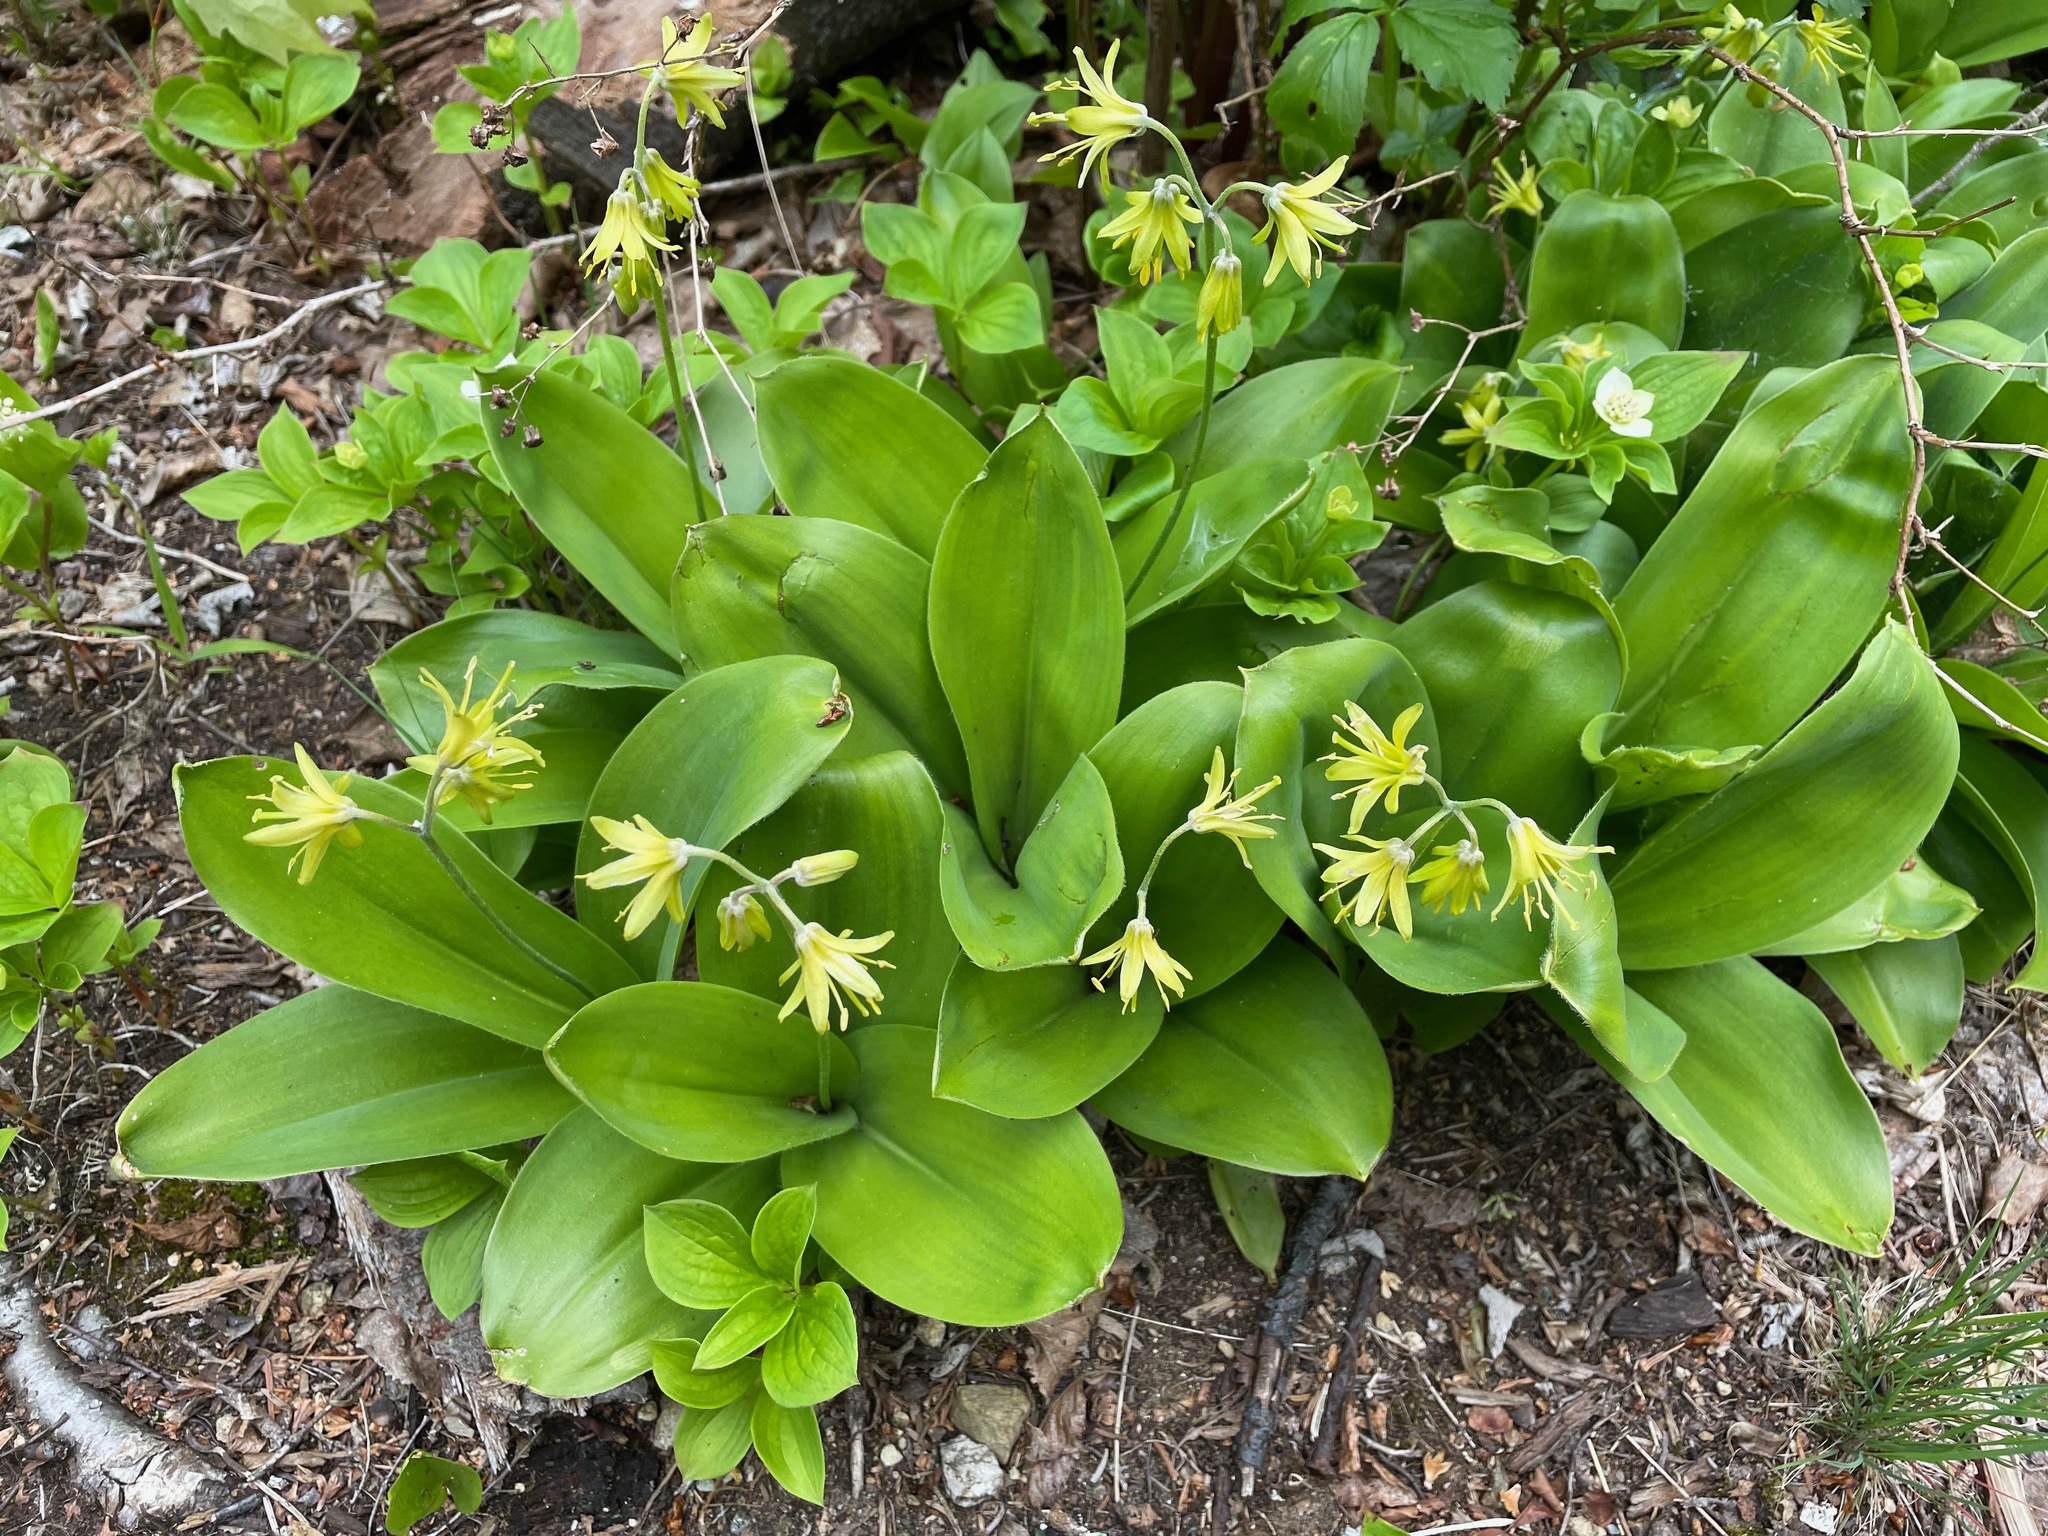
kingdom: Plantae
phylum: Tracheophyta
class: Liliopsida
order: Liliales
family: Liliaceae
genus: Clintonia
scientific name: Clintonia borealis
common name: Yellow clintonia
